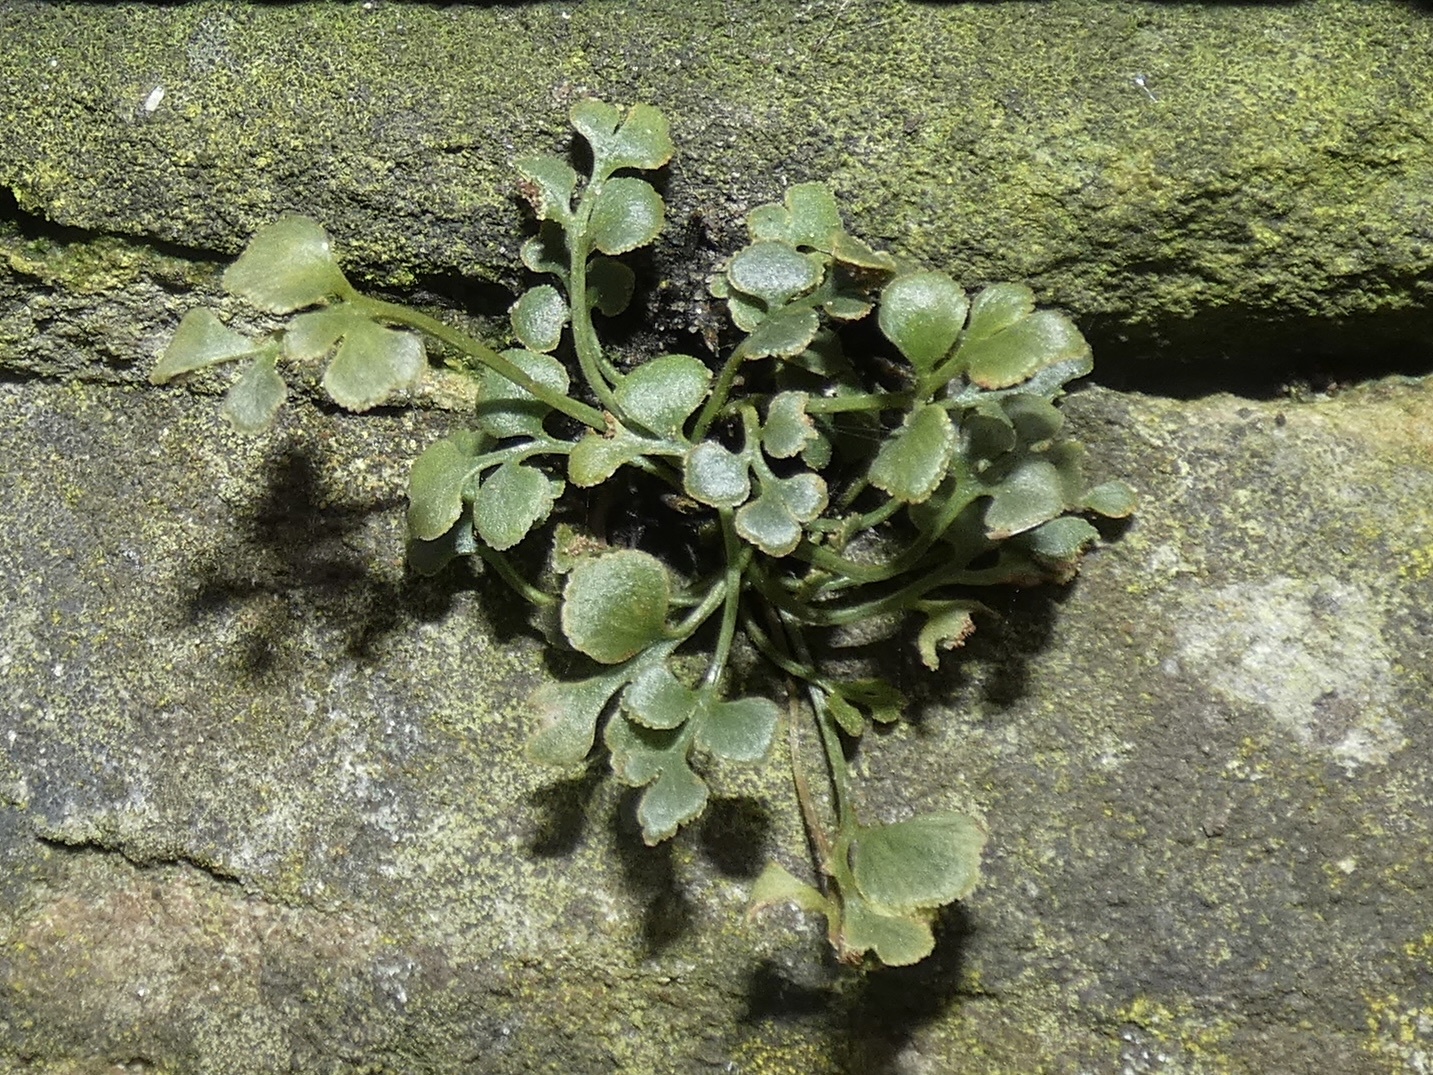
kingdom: Plantae
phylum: Tracheophyta
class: Polypodiopsida
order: Polypodiales
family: Aspleniaceae
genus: Asplenium
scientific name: Asplenium ruta-muraria
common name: Wall-rue
